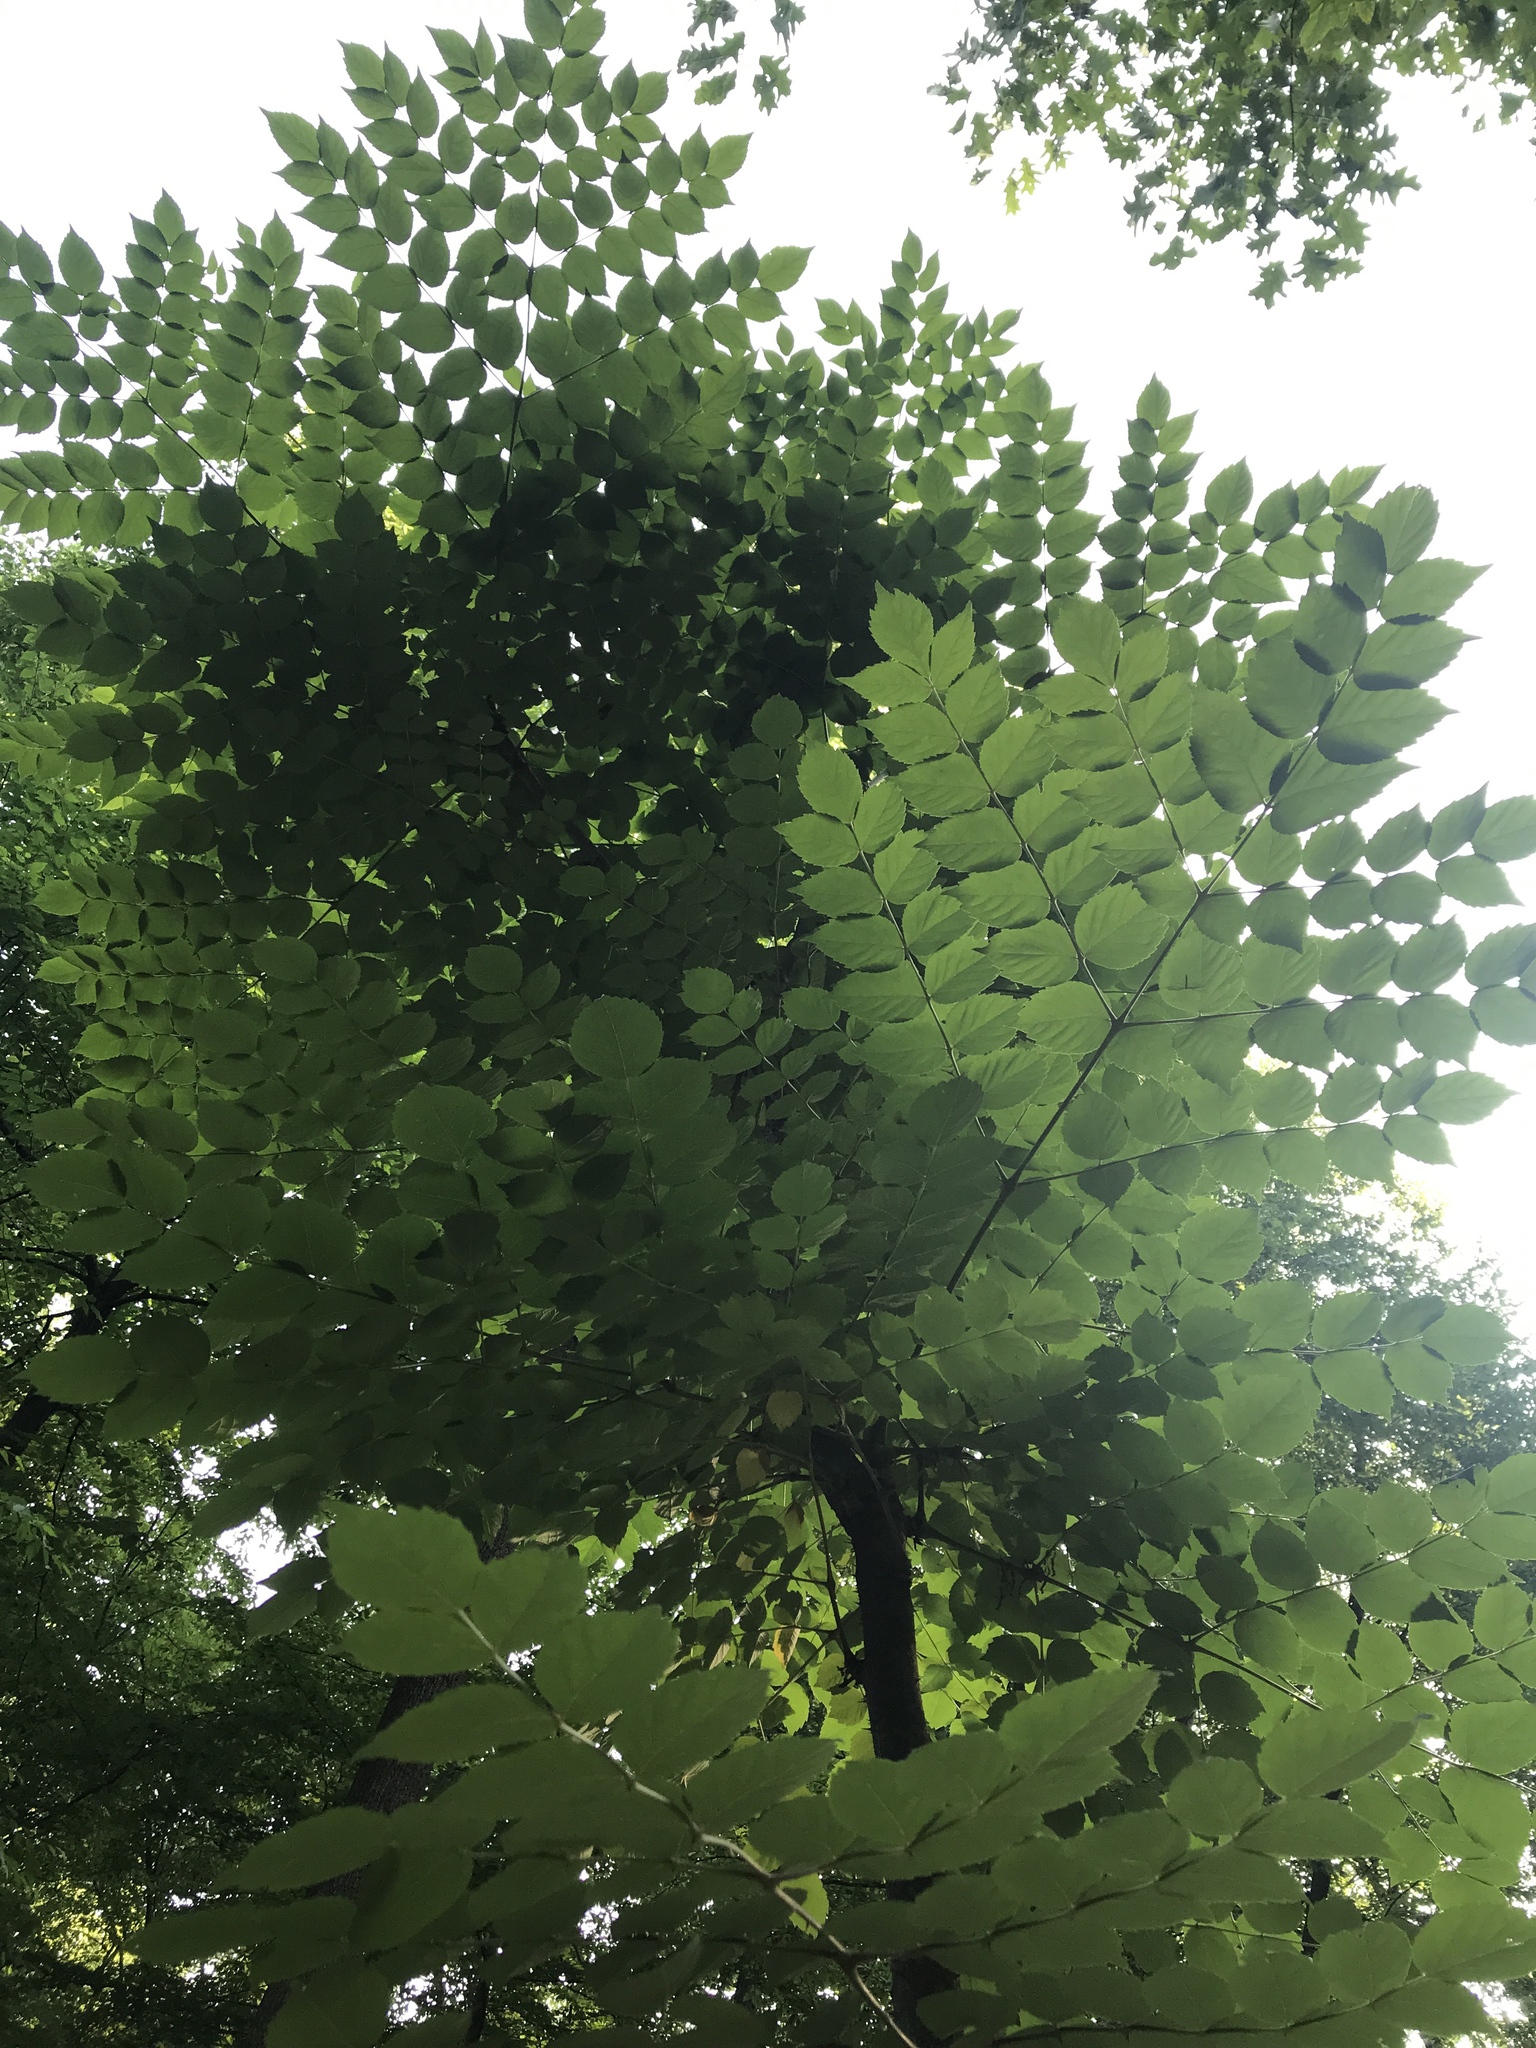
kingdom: Plantae
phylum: Tracheophyta
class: Magnoliopsida
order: Apiales
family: Araliaceae
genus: Aralia
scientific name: Aralia elata
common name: Japanese angelica-tree
